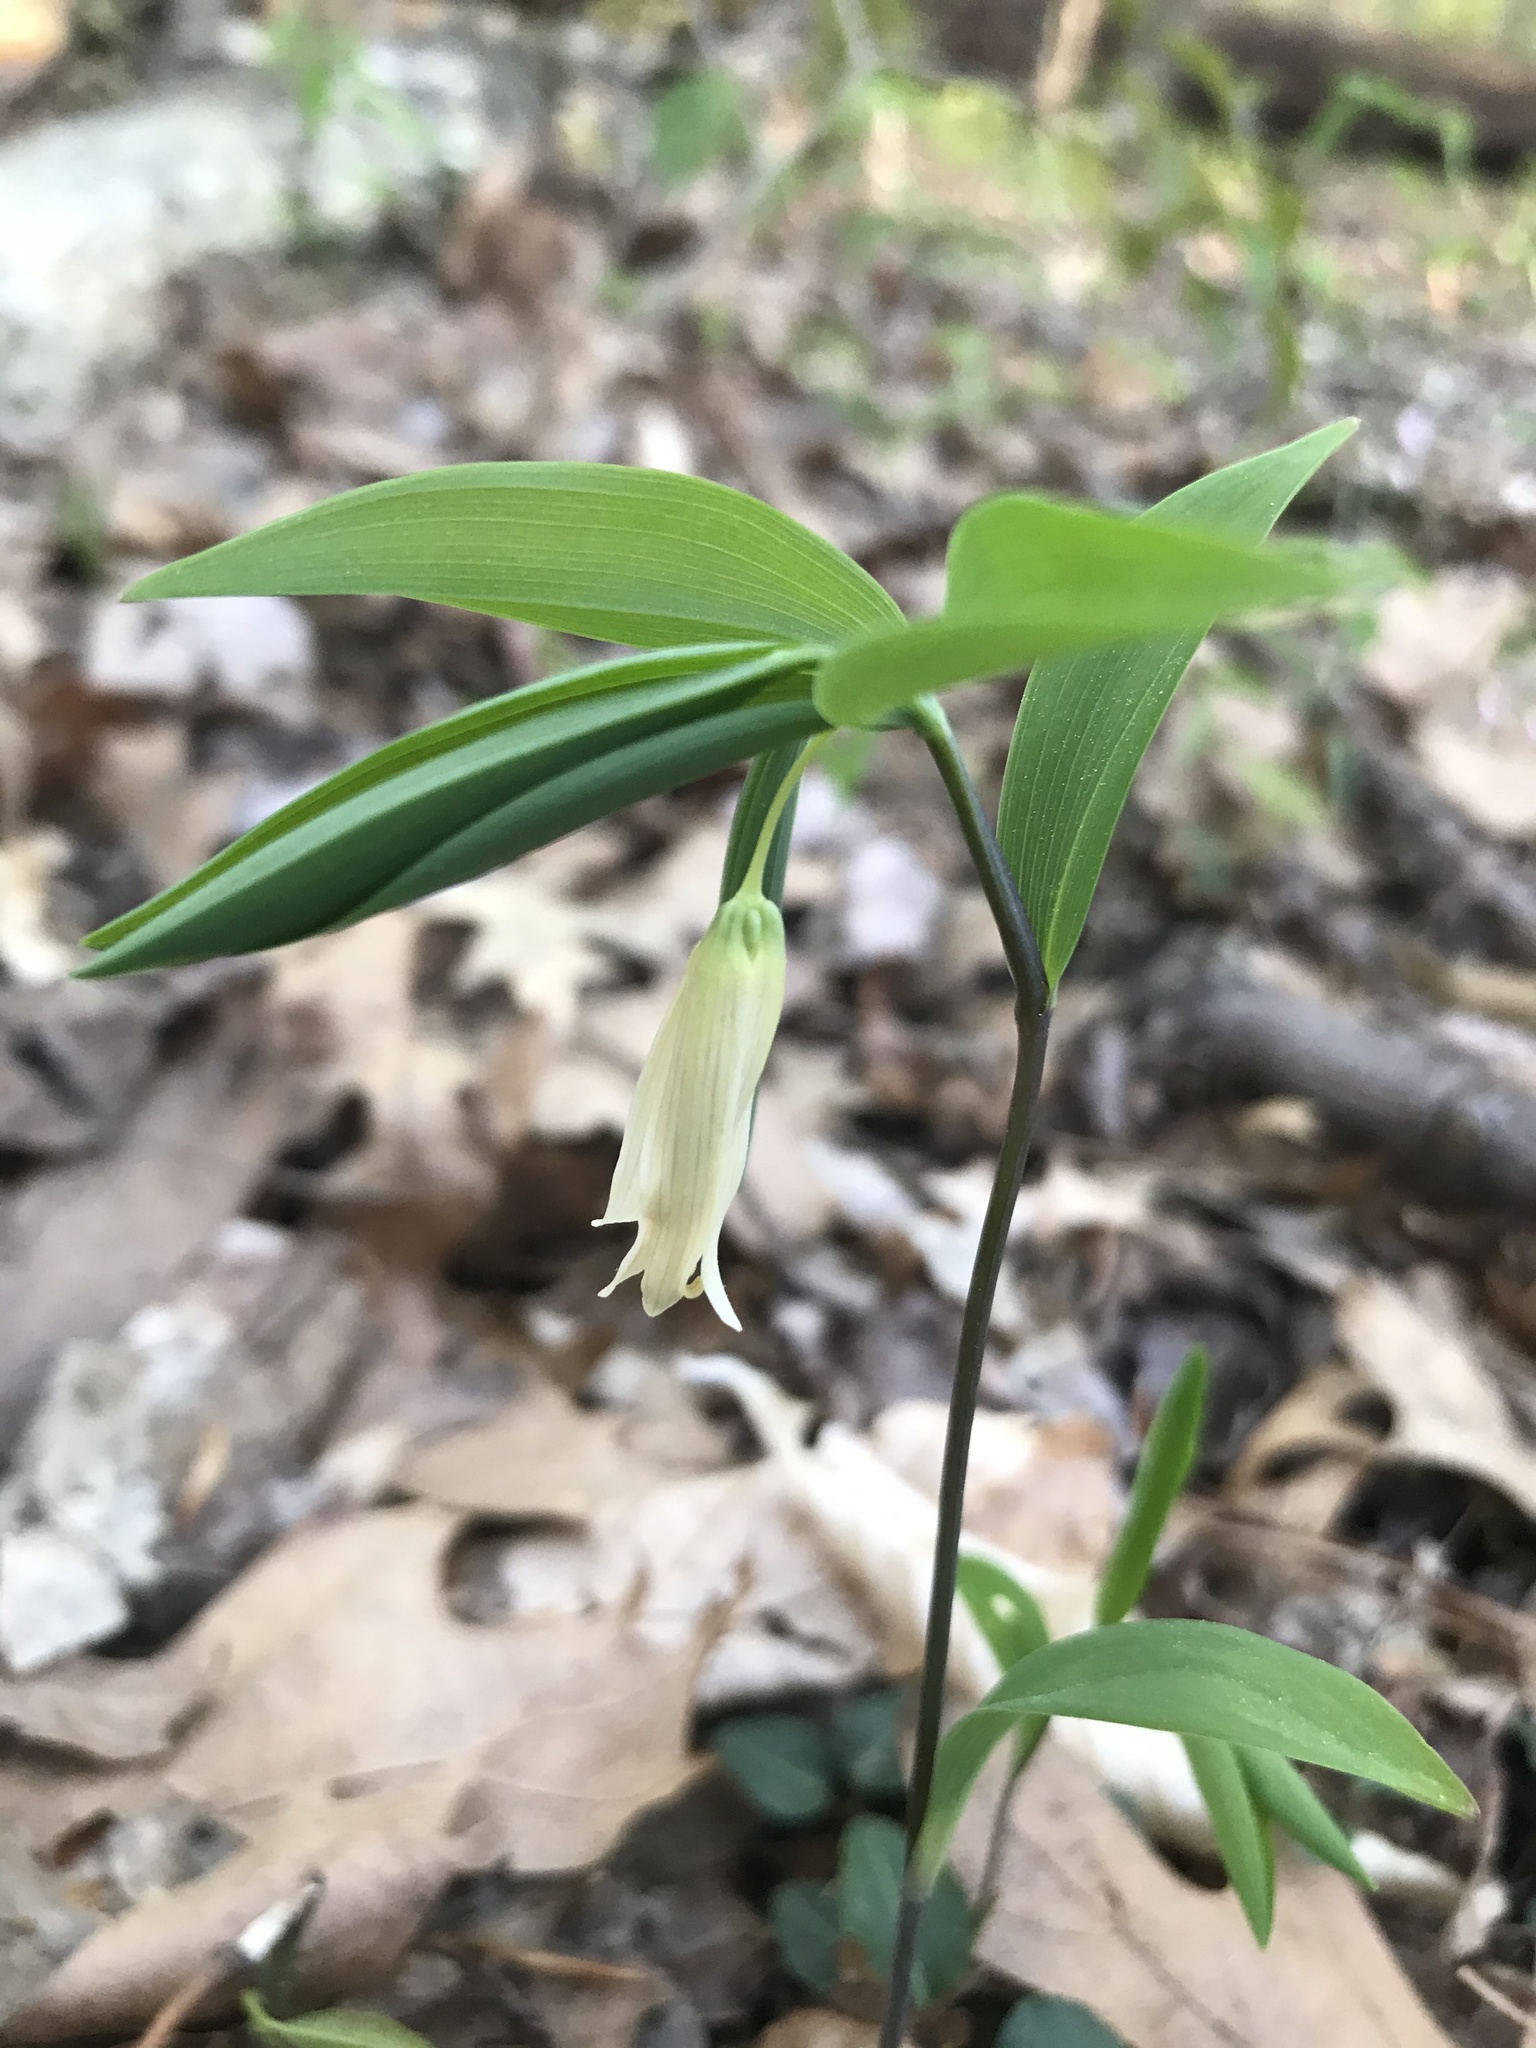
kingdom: Plantae
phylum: Tracheophyta
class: Liliopsida
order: Liliales
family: Colchicaceae
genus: Uvularia
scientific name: Uvularia sessilifolia
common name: Straw-lily
